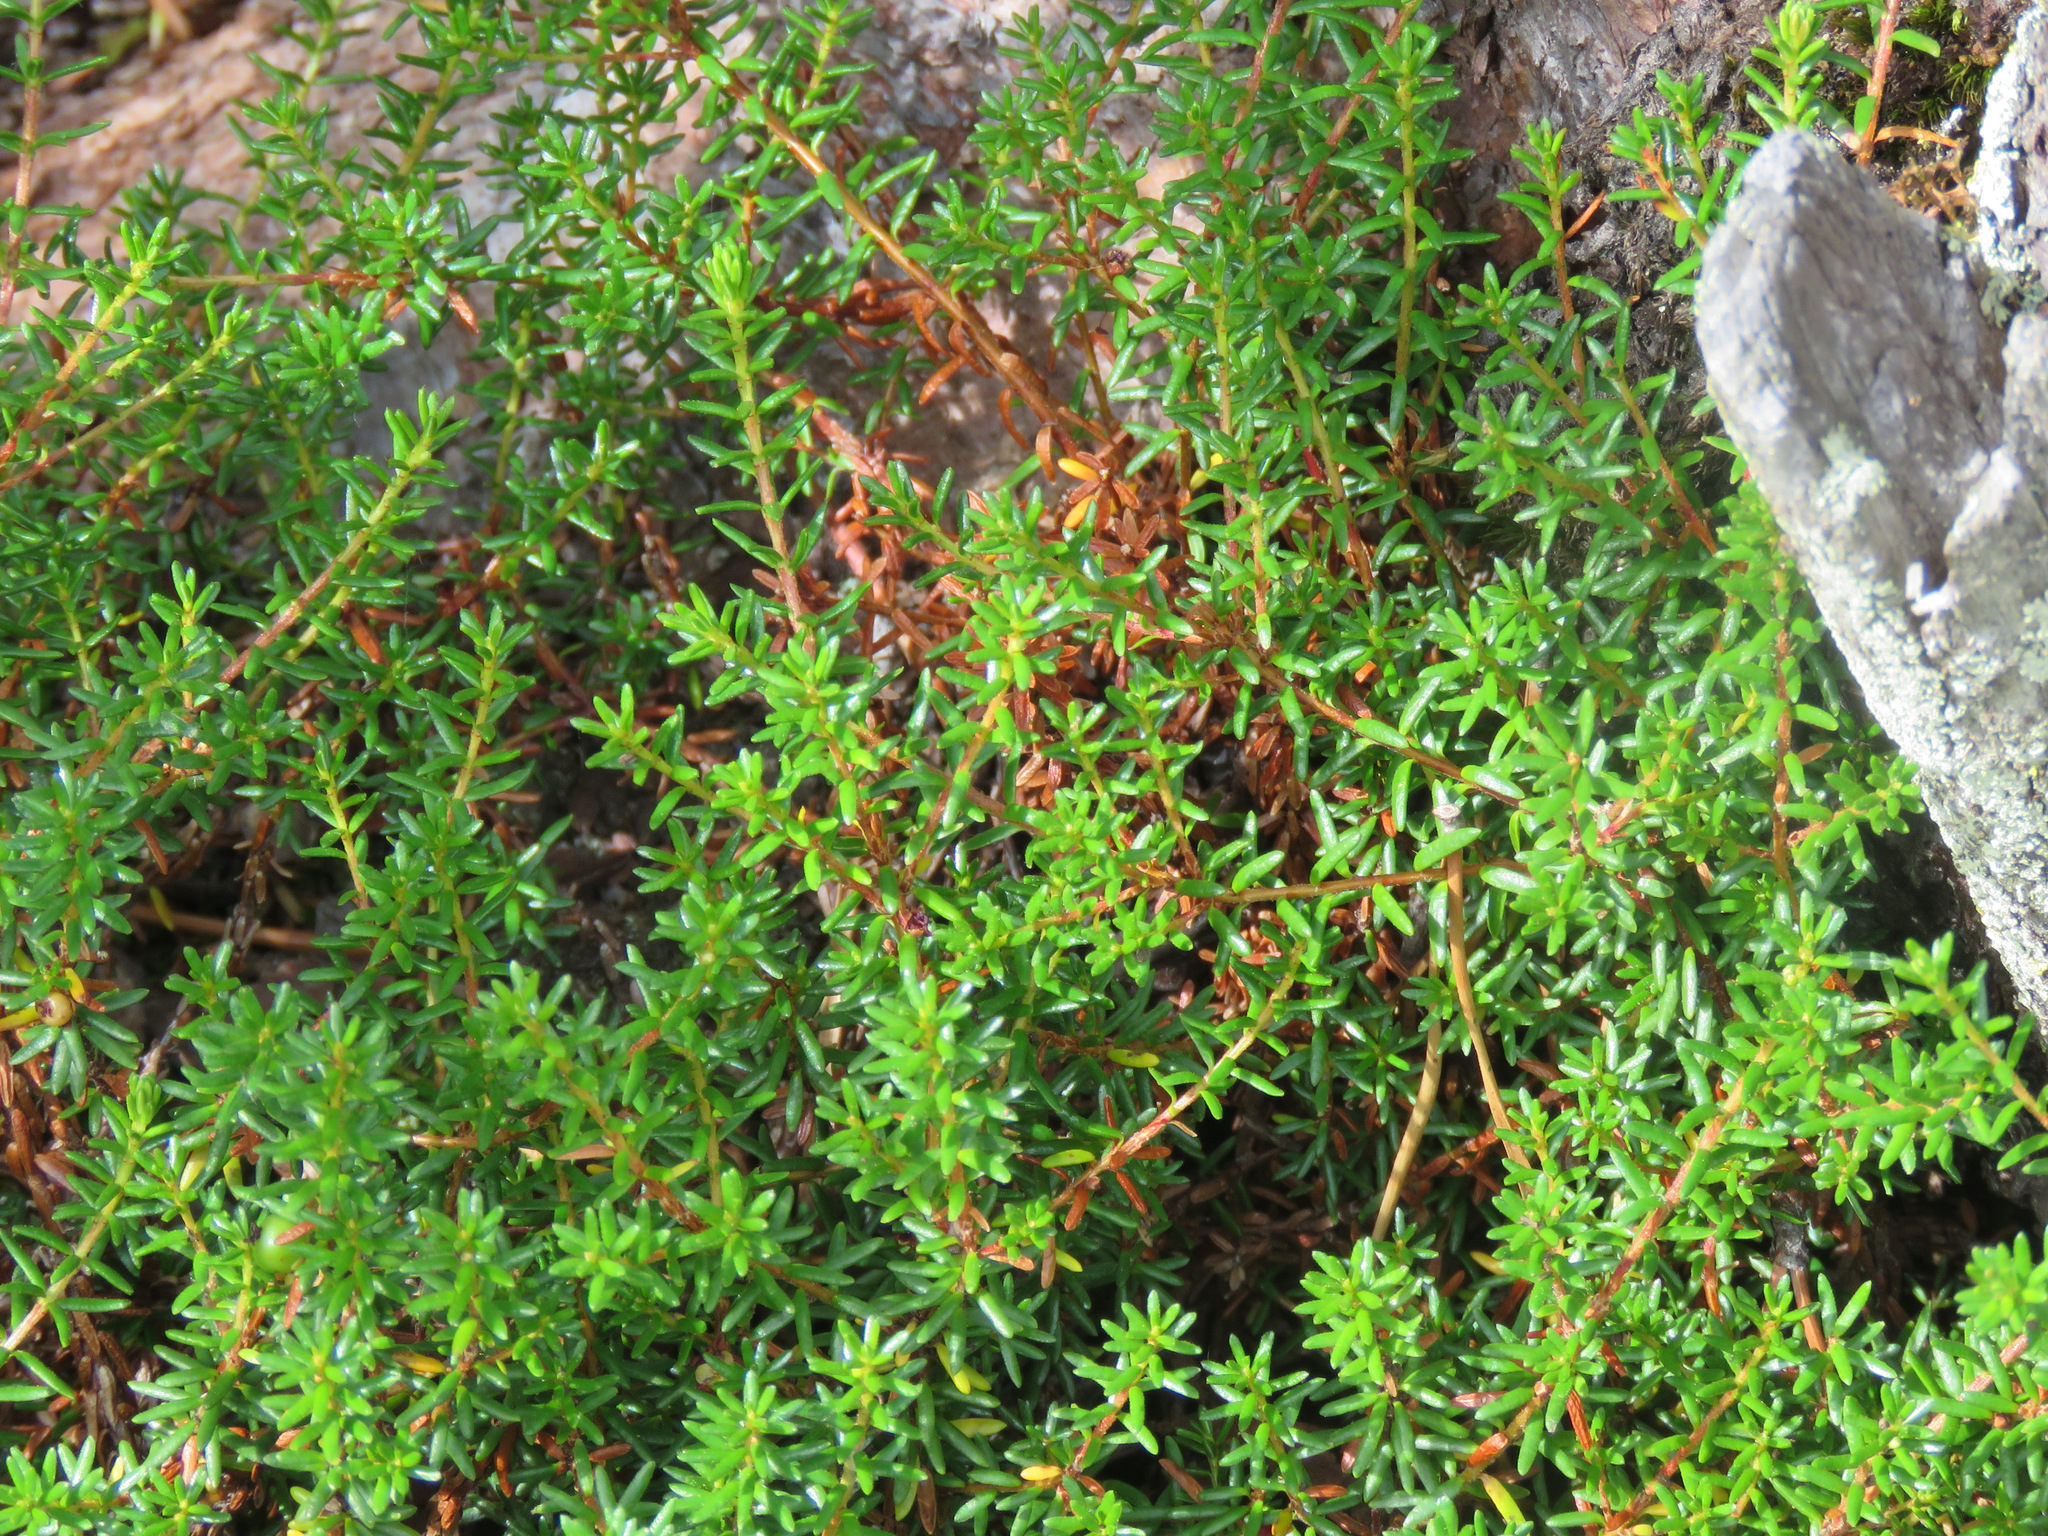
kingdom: Plantae
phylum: Tracheophyta
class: Magnoliopsida
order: Ericales
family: Ericaceae
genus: Empetrum
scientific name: Empetrum nigrum
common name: Black crowberry
